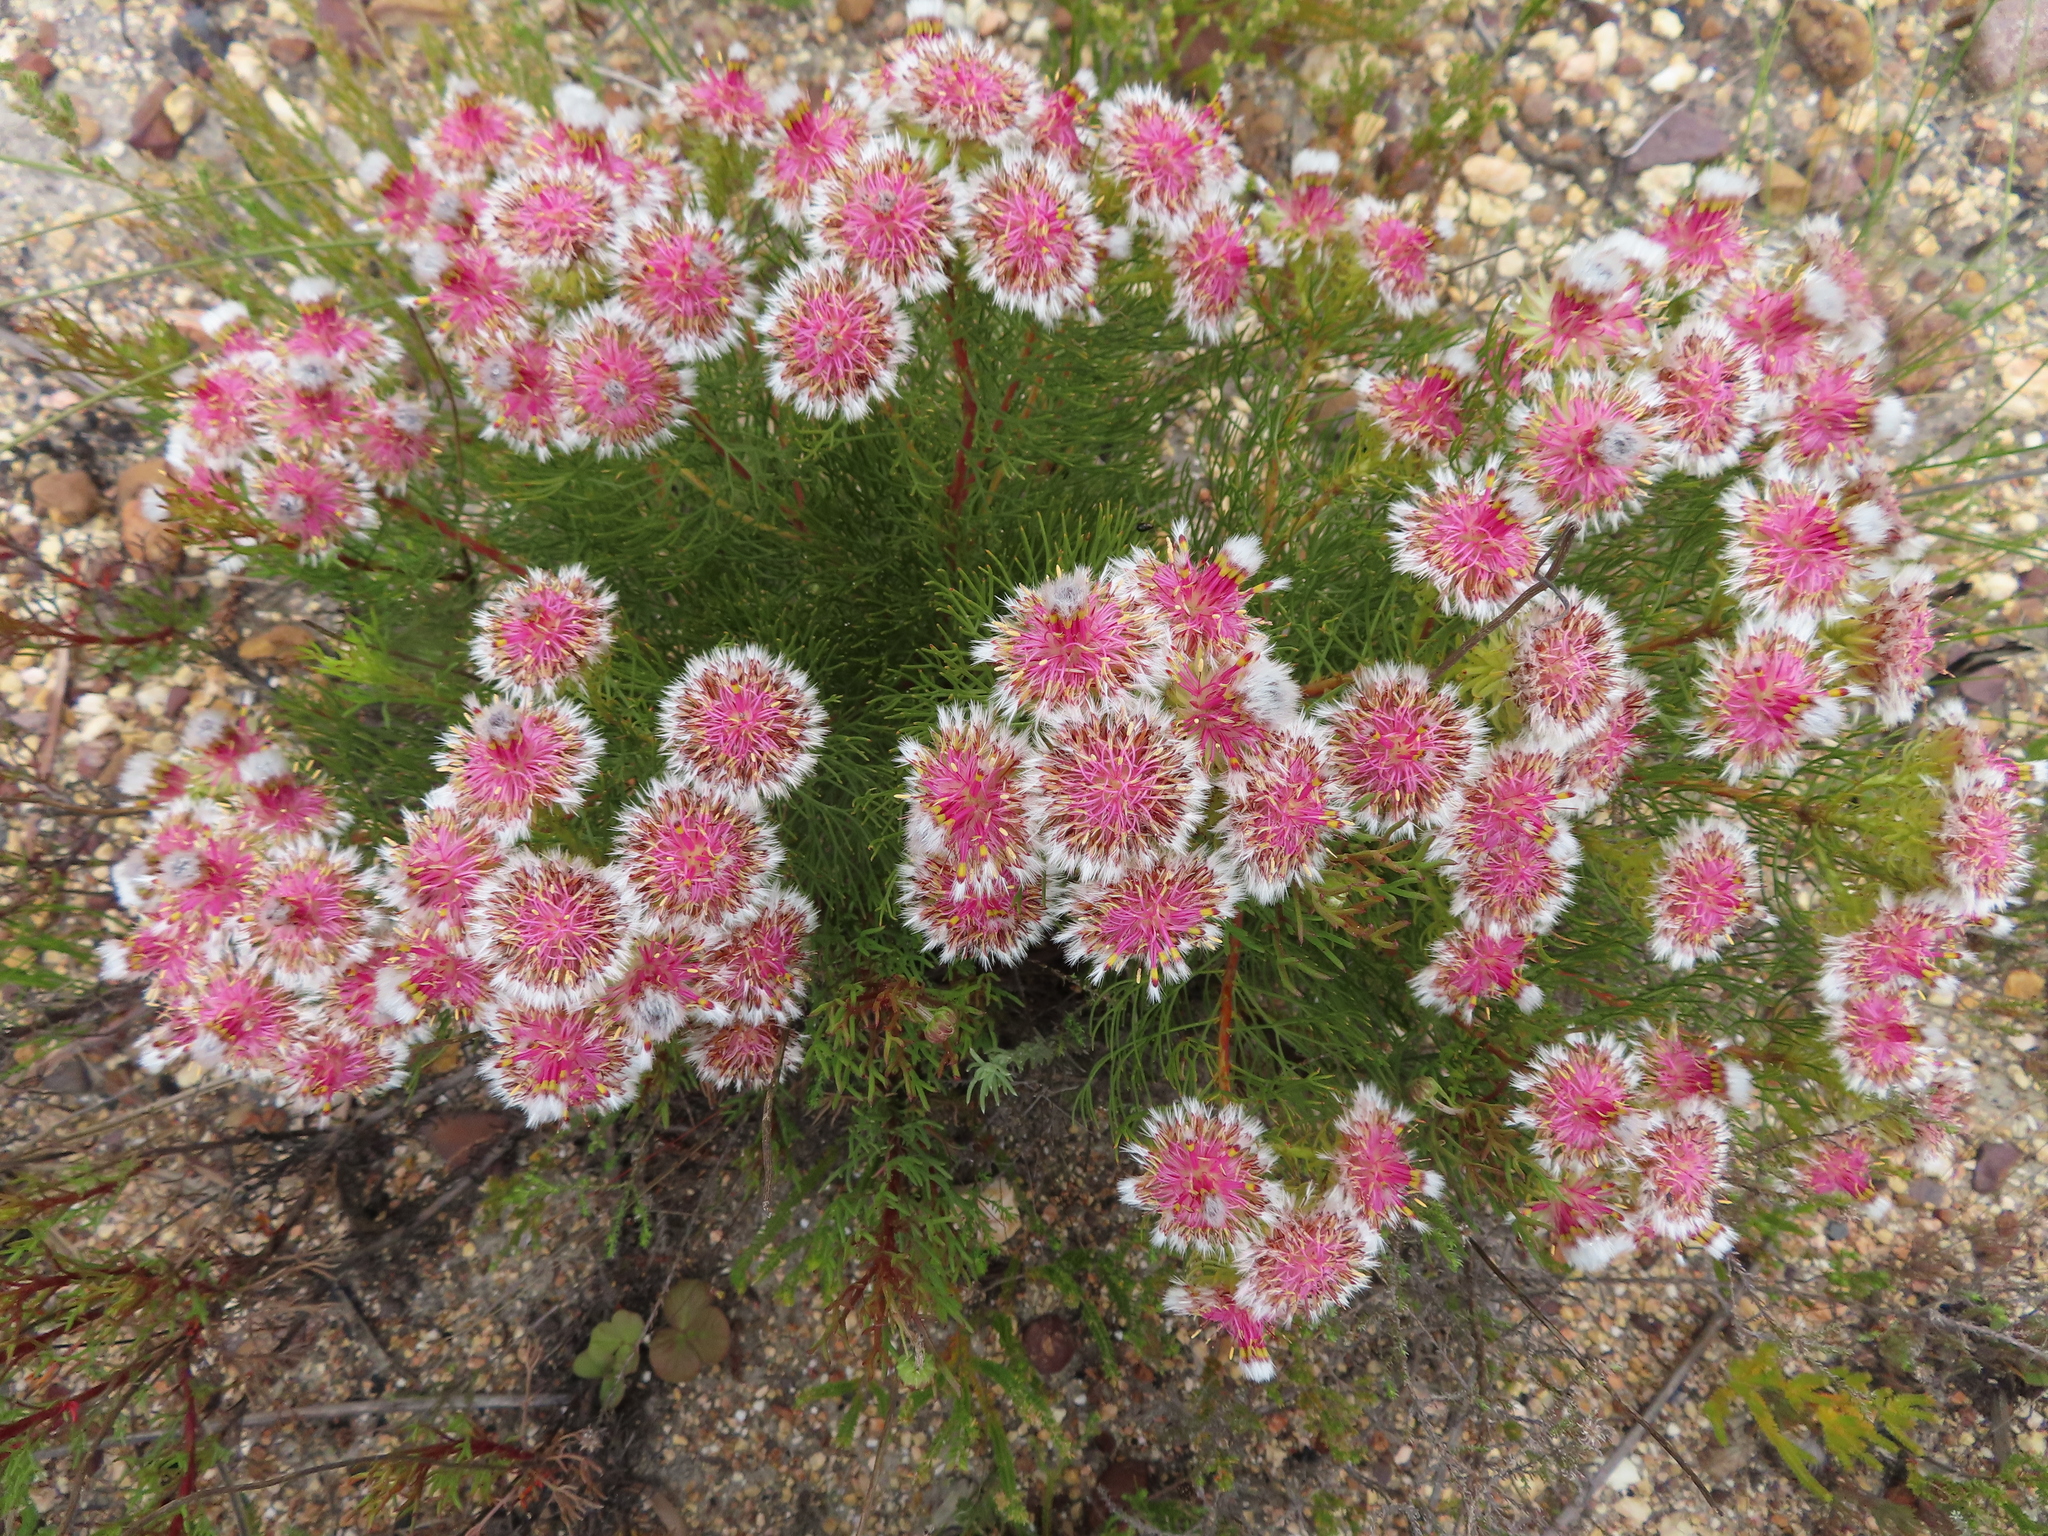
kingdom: Plantae
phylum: Tracheophyta
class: Magnoliopsida
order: Proteales
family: Proteaceae
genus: Serruria
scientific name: Serruria phylicoides
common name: Bearded spiderhead
